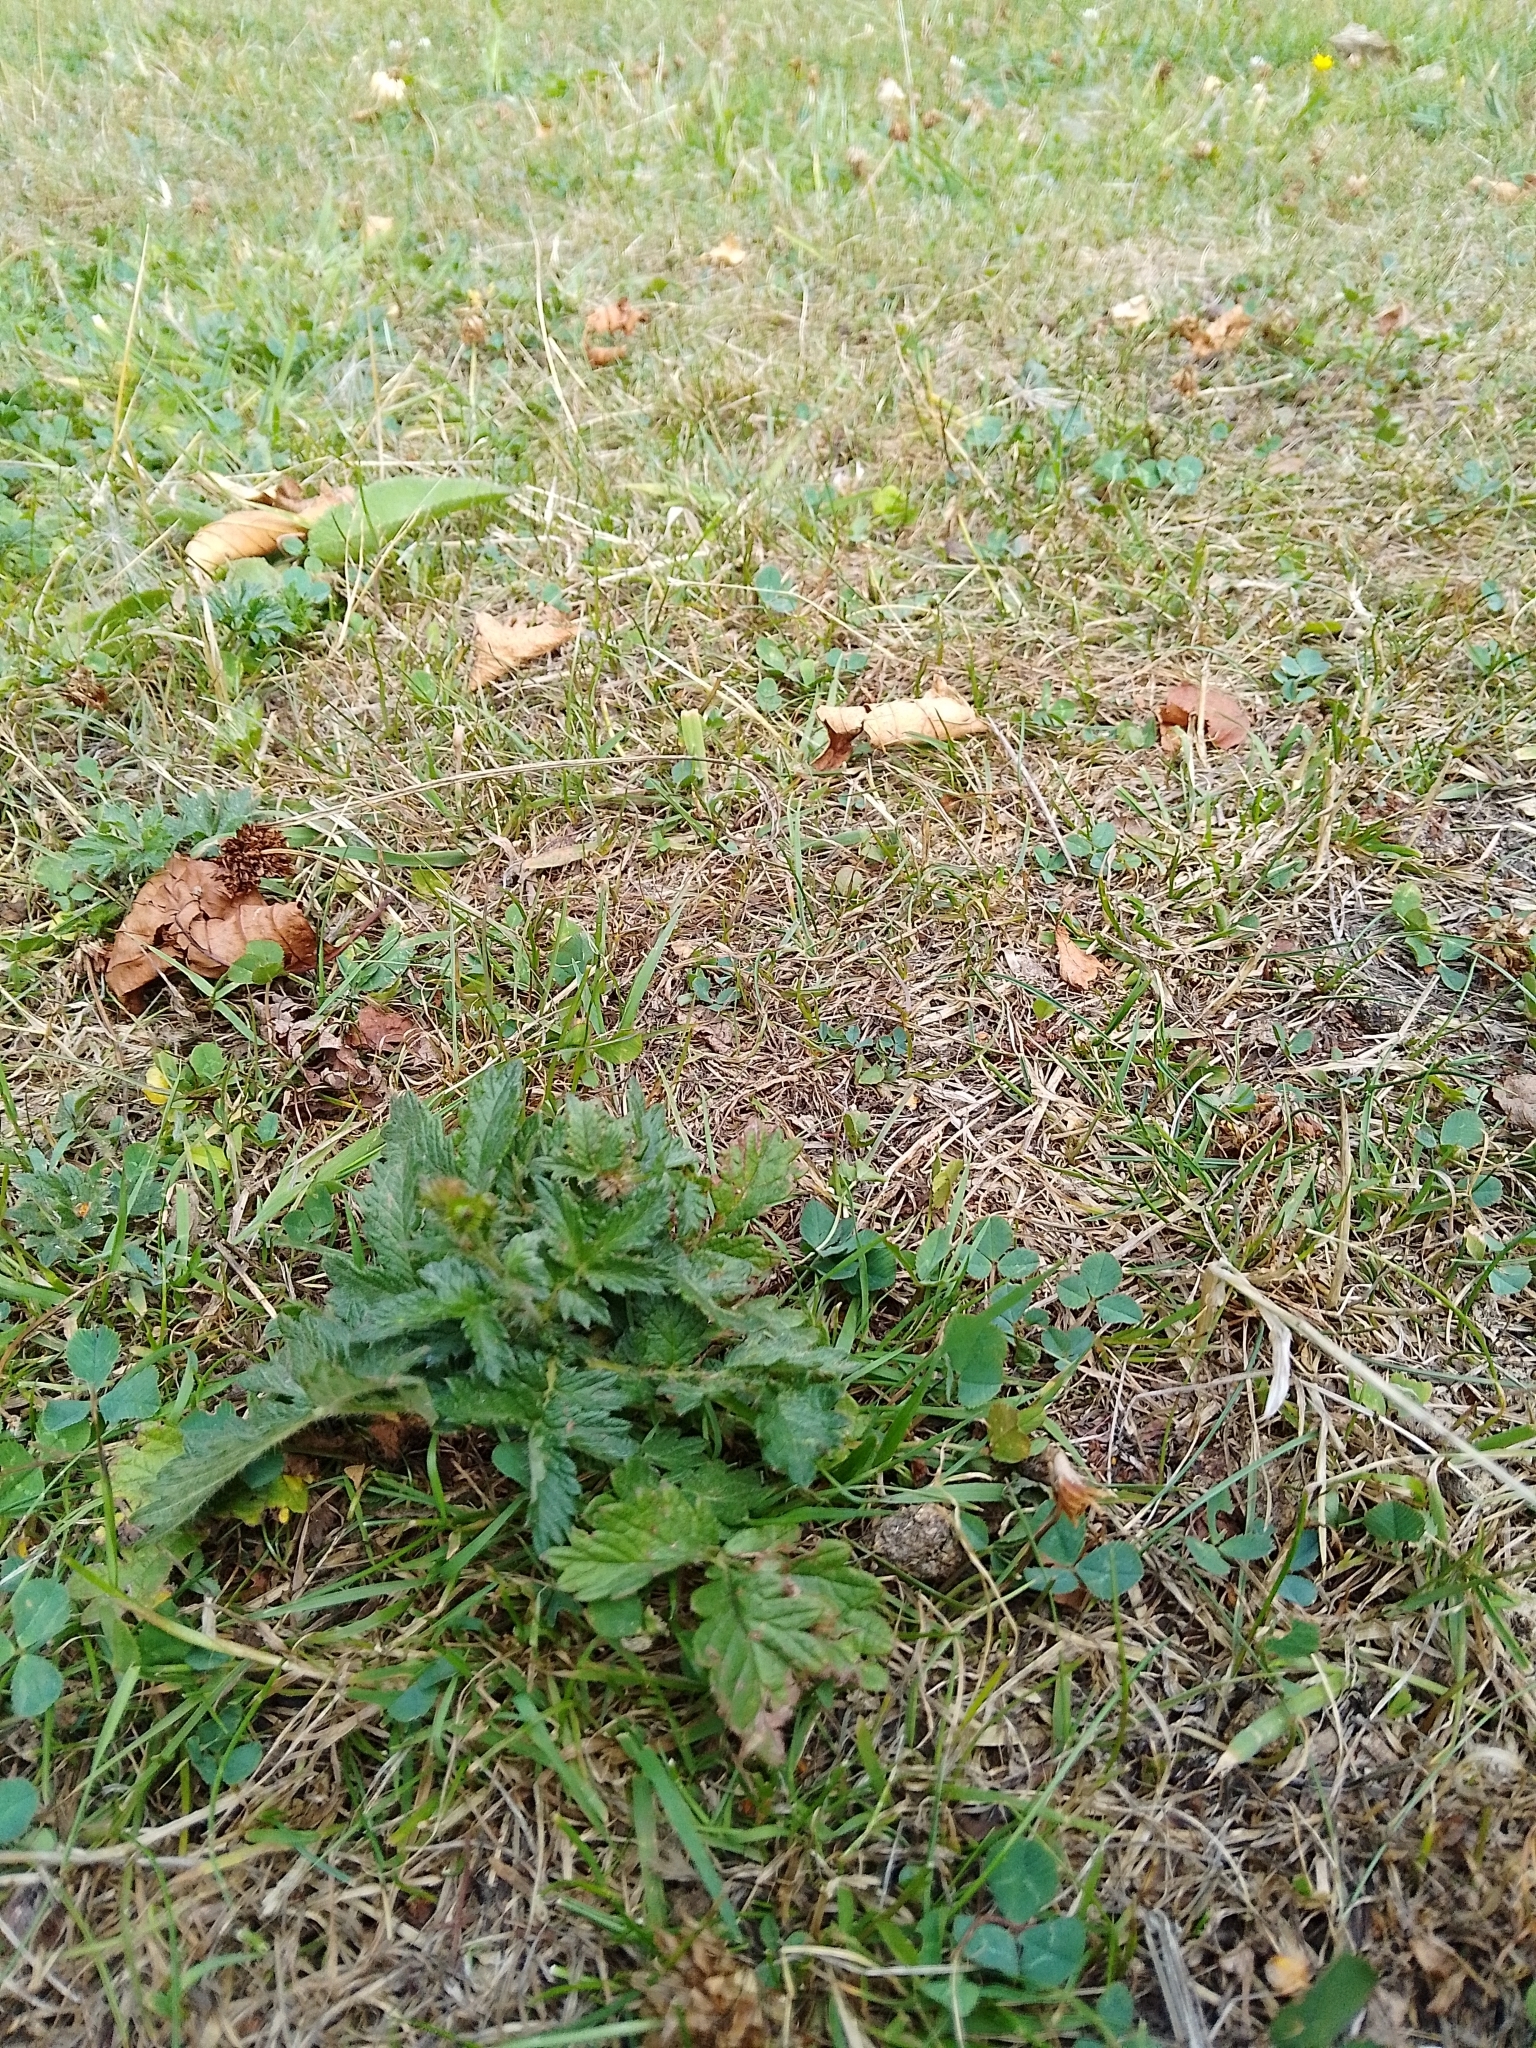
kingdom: Plantae
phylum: Tracheophyta
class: Magnoliopsida
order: Rosales
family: Rosaceae
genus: Agrimonia
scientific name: Agrimonia eupatoria
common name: Agrimony
